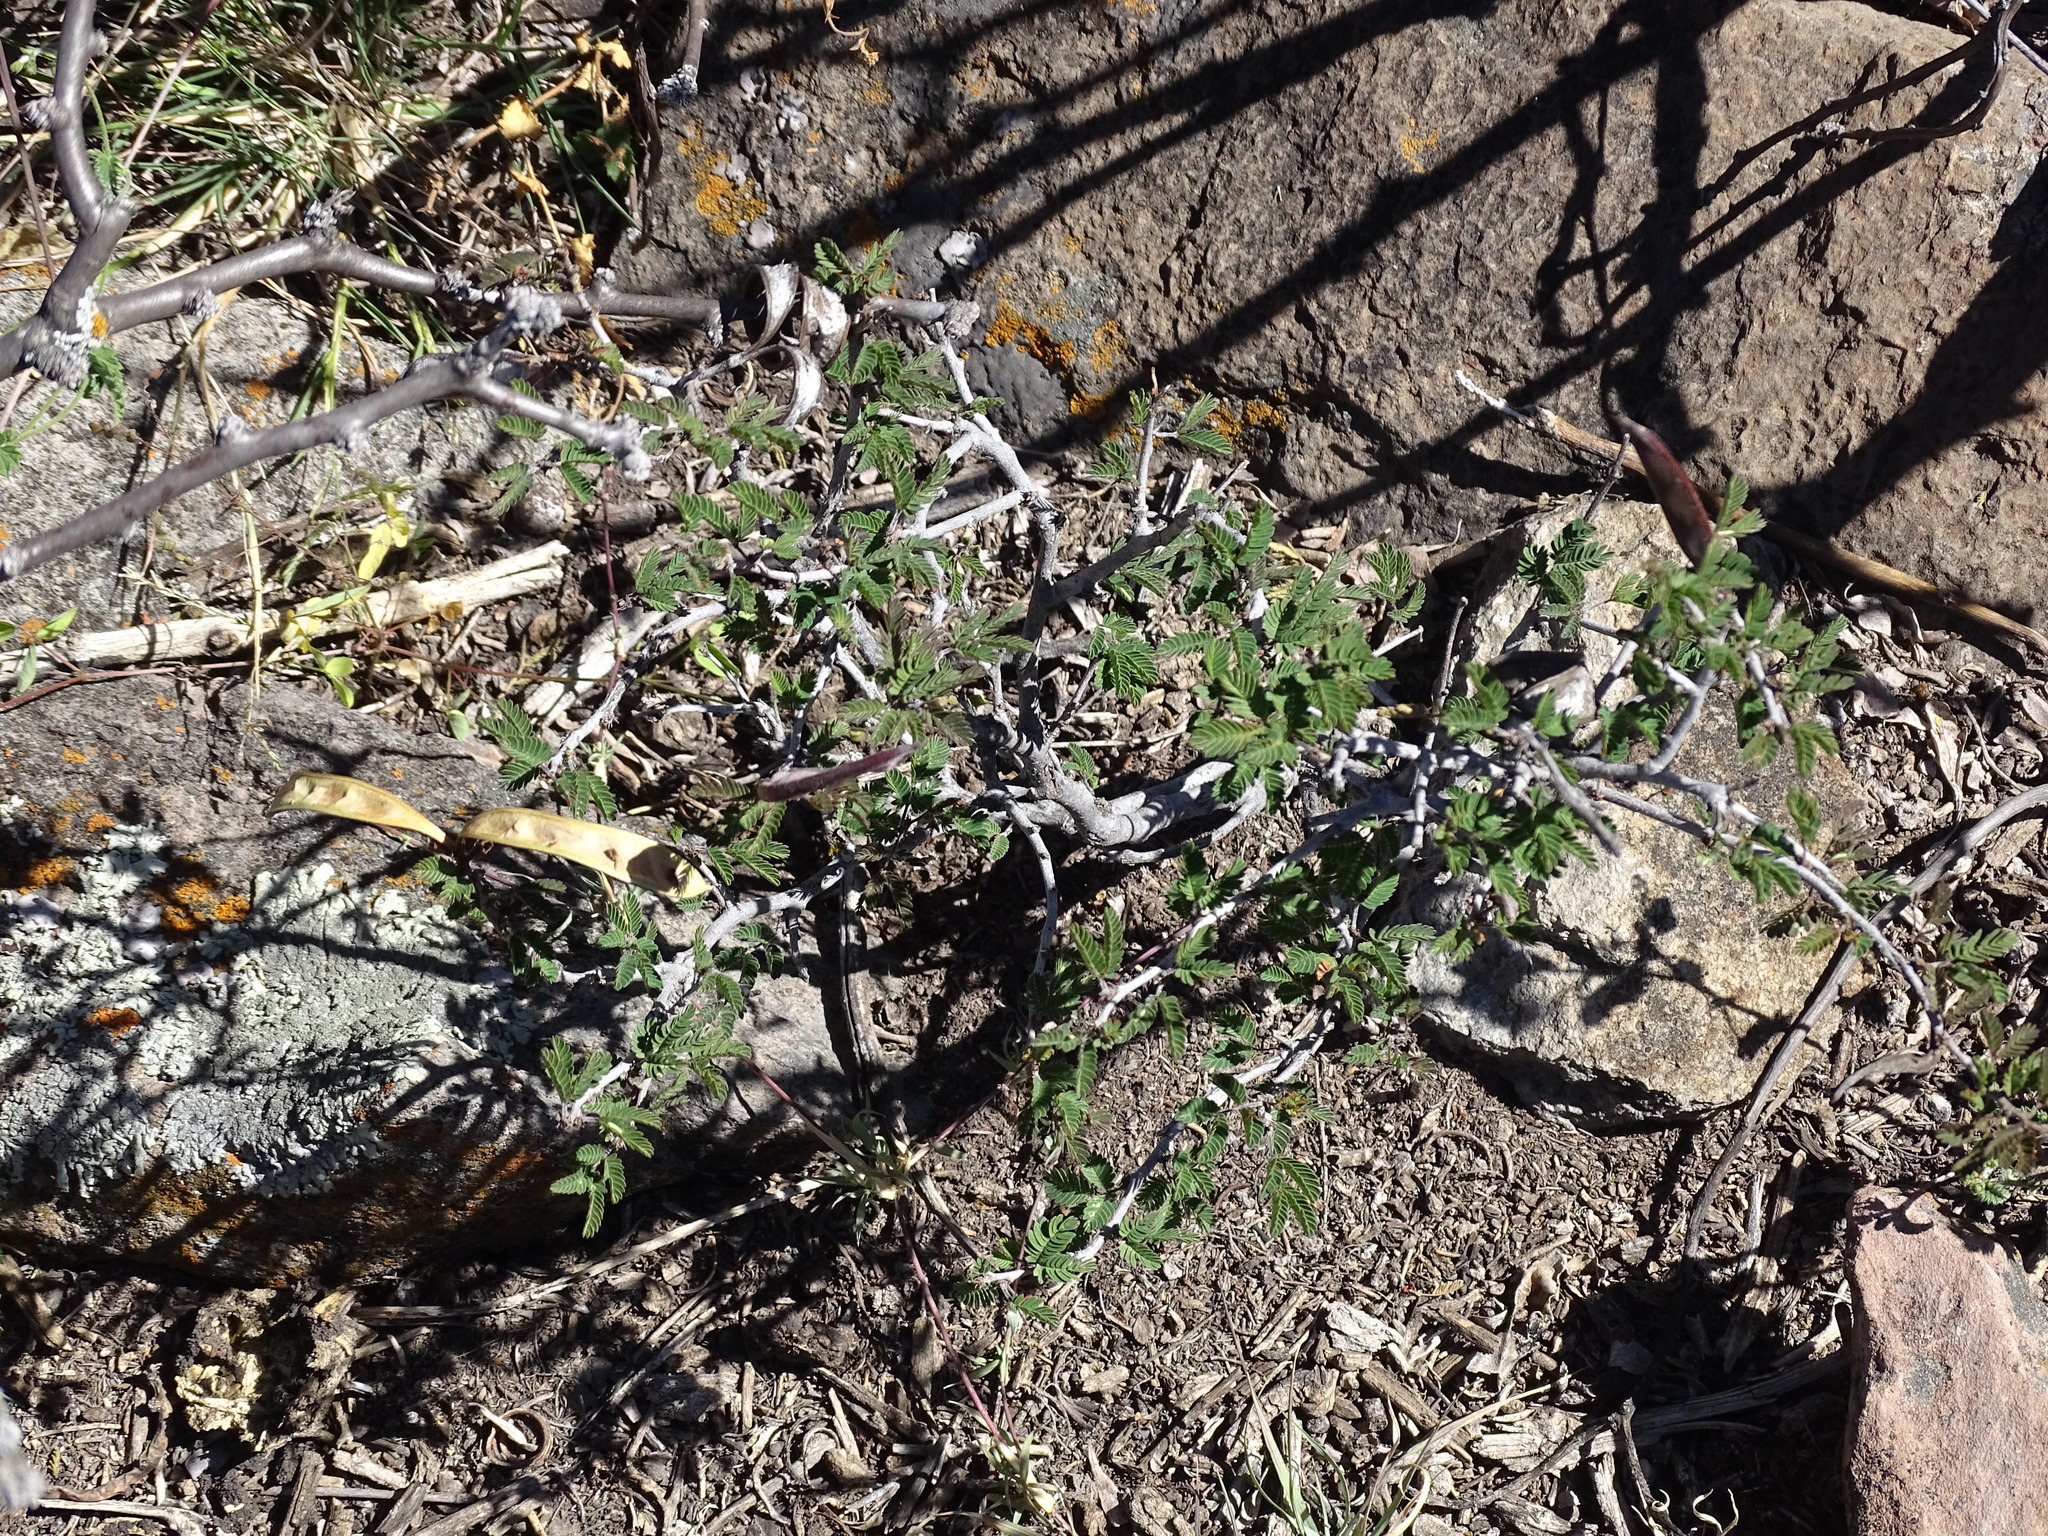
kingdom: Plantae
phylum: Tracheophyta
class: Magnoliopsida
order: Fabales
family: Fabaceae
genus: Calliandra
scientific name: Calliandra eriophylla
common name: Fairy-duster
